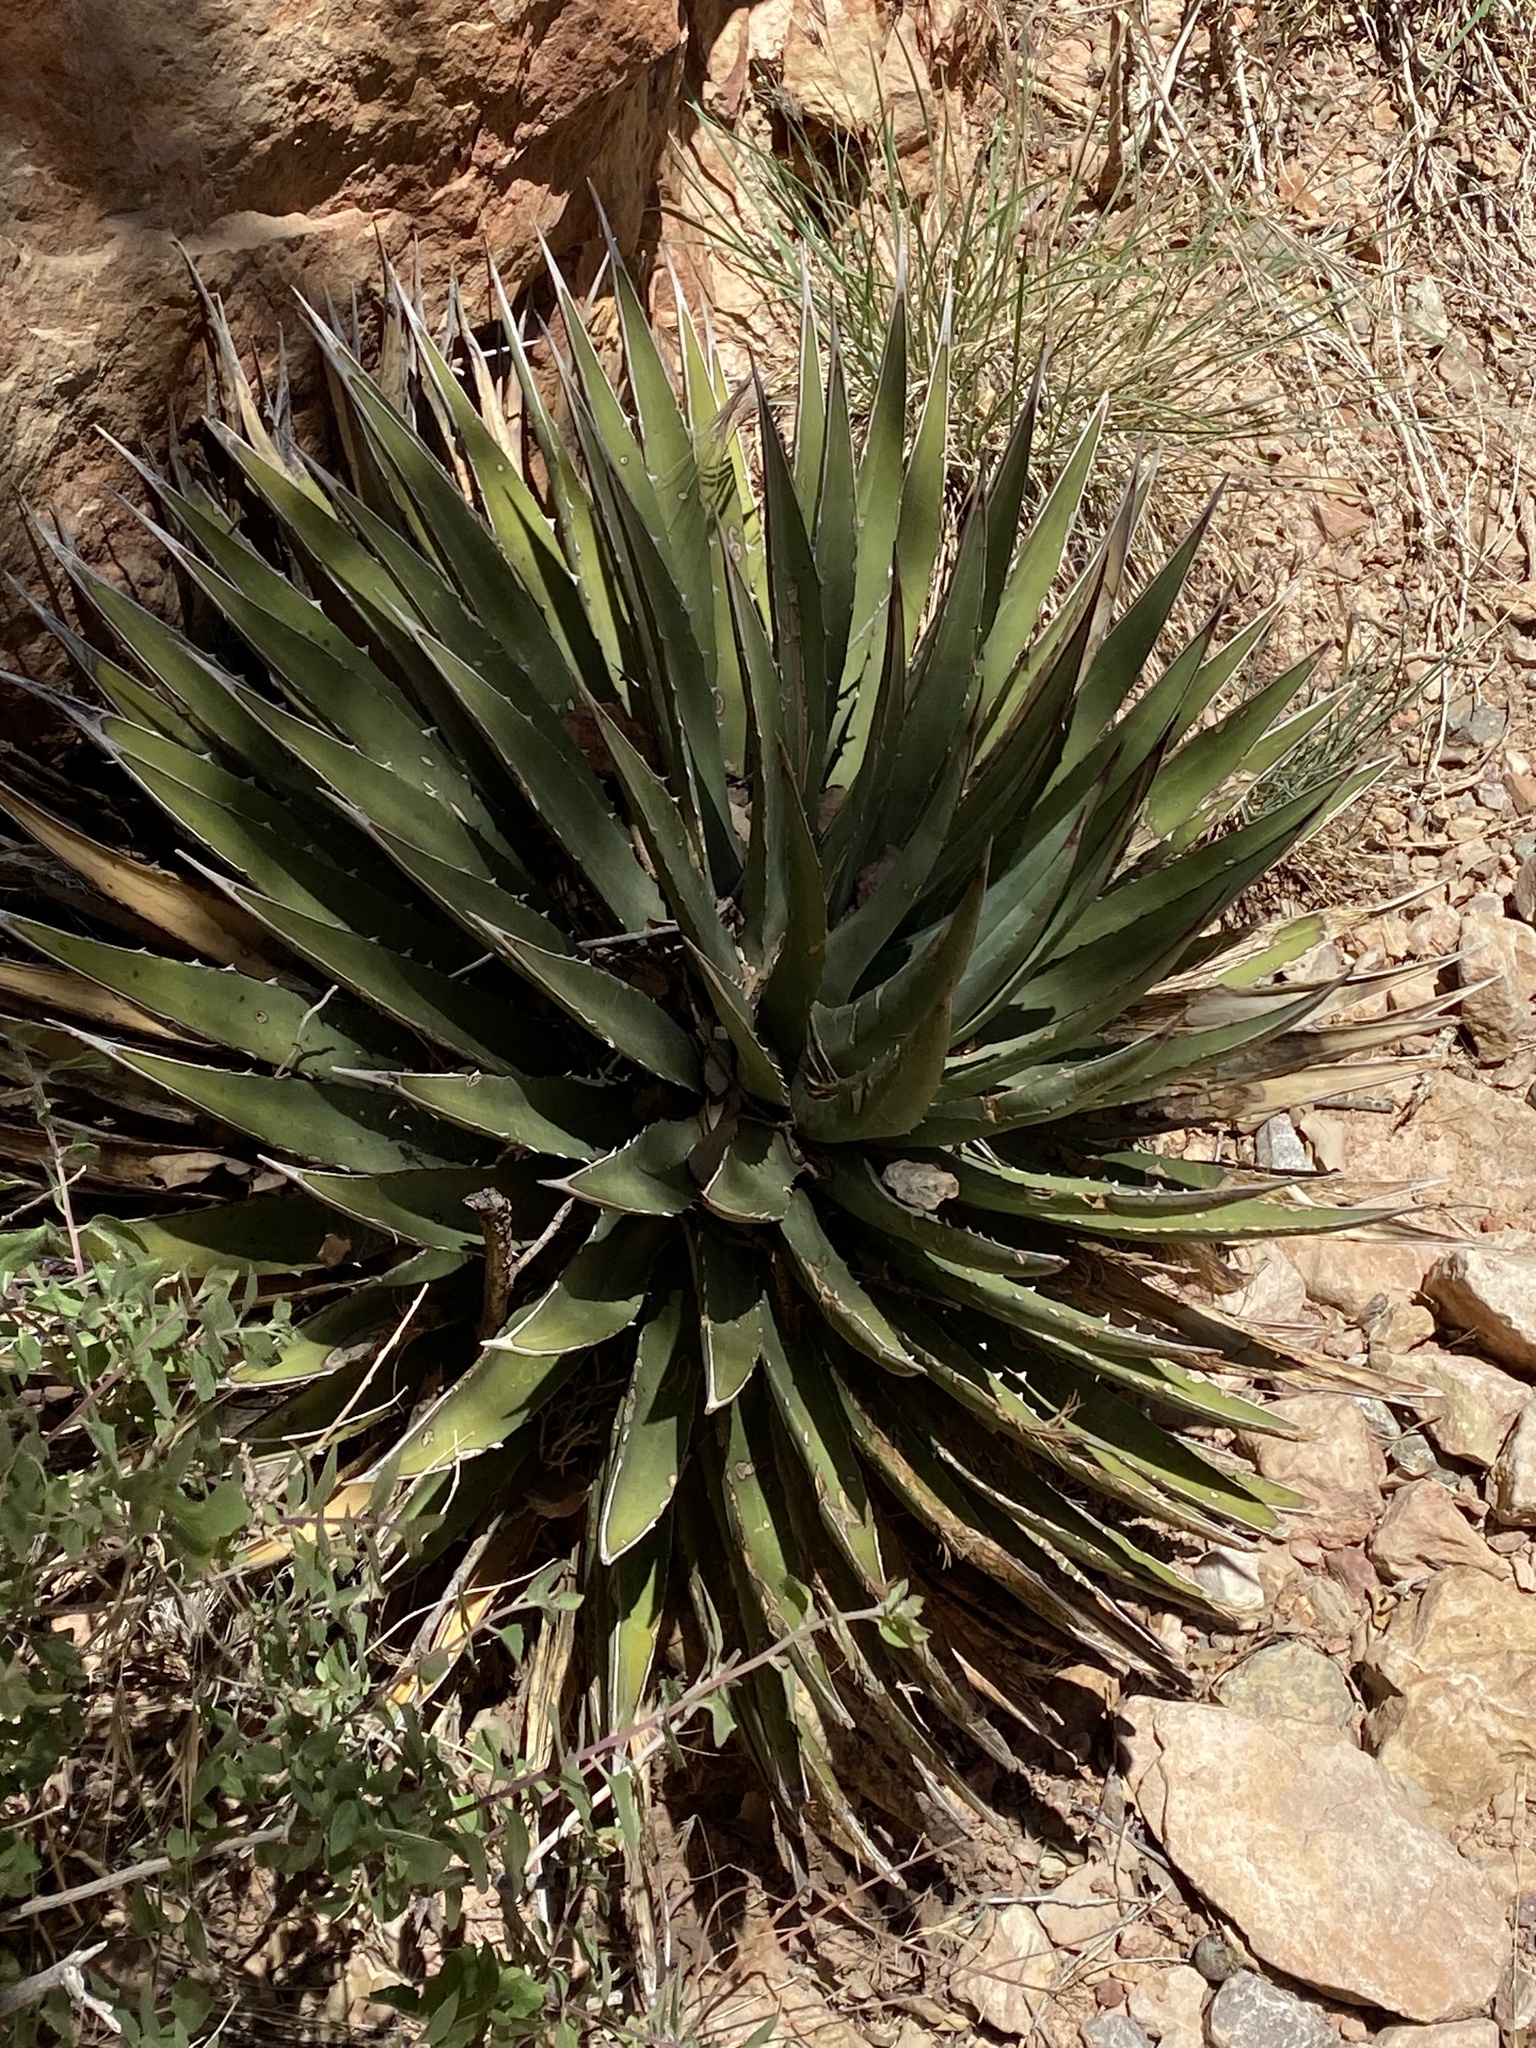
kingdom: Plantae
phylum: Tracheophyta
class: Liliopsida
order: Asparagales
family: Asparagaceae
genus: Agave
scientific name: Agave utahensis
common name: Utah agave
